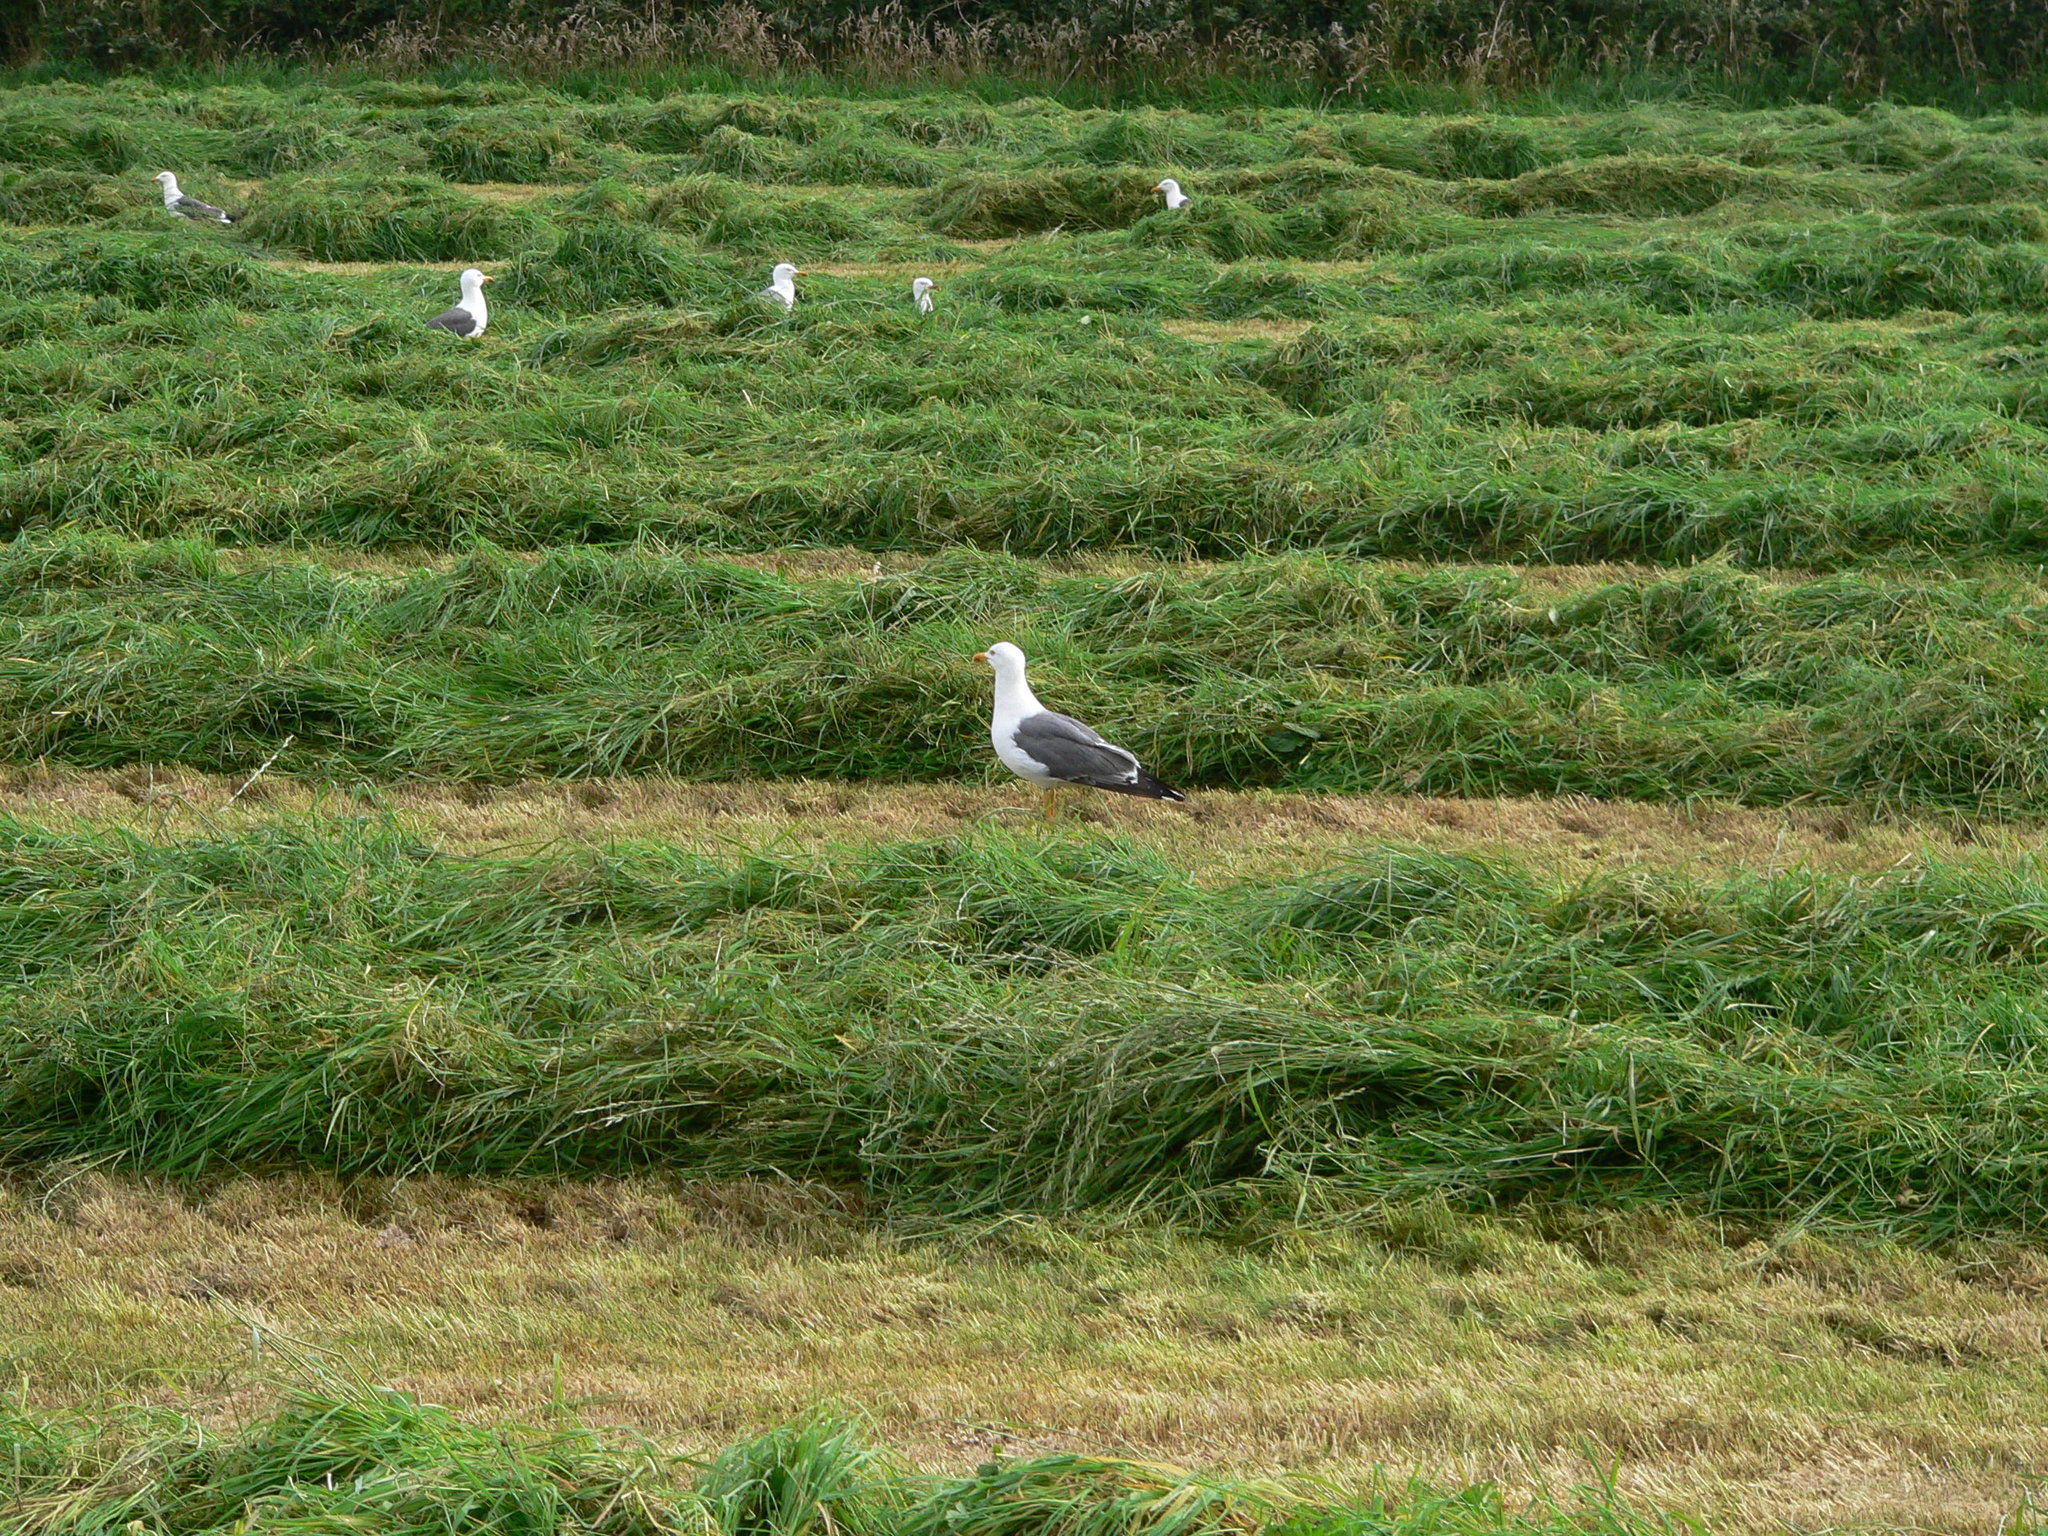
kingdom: Animalia
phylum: Chordata
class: Aves
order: Charadriiformes
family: Laridae
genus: Larus
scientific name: Larus fuscus
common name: Lesser black-backed gull
